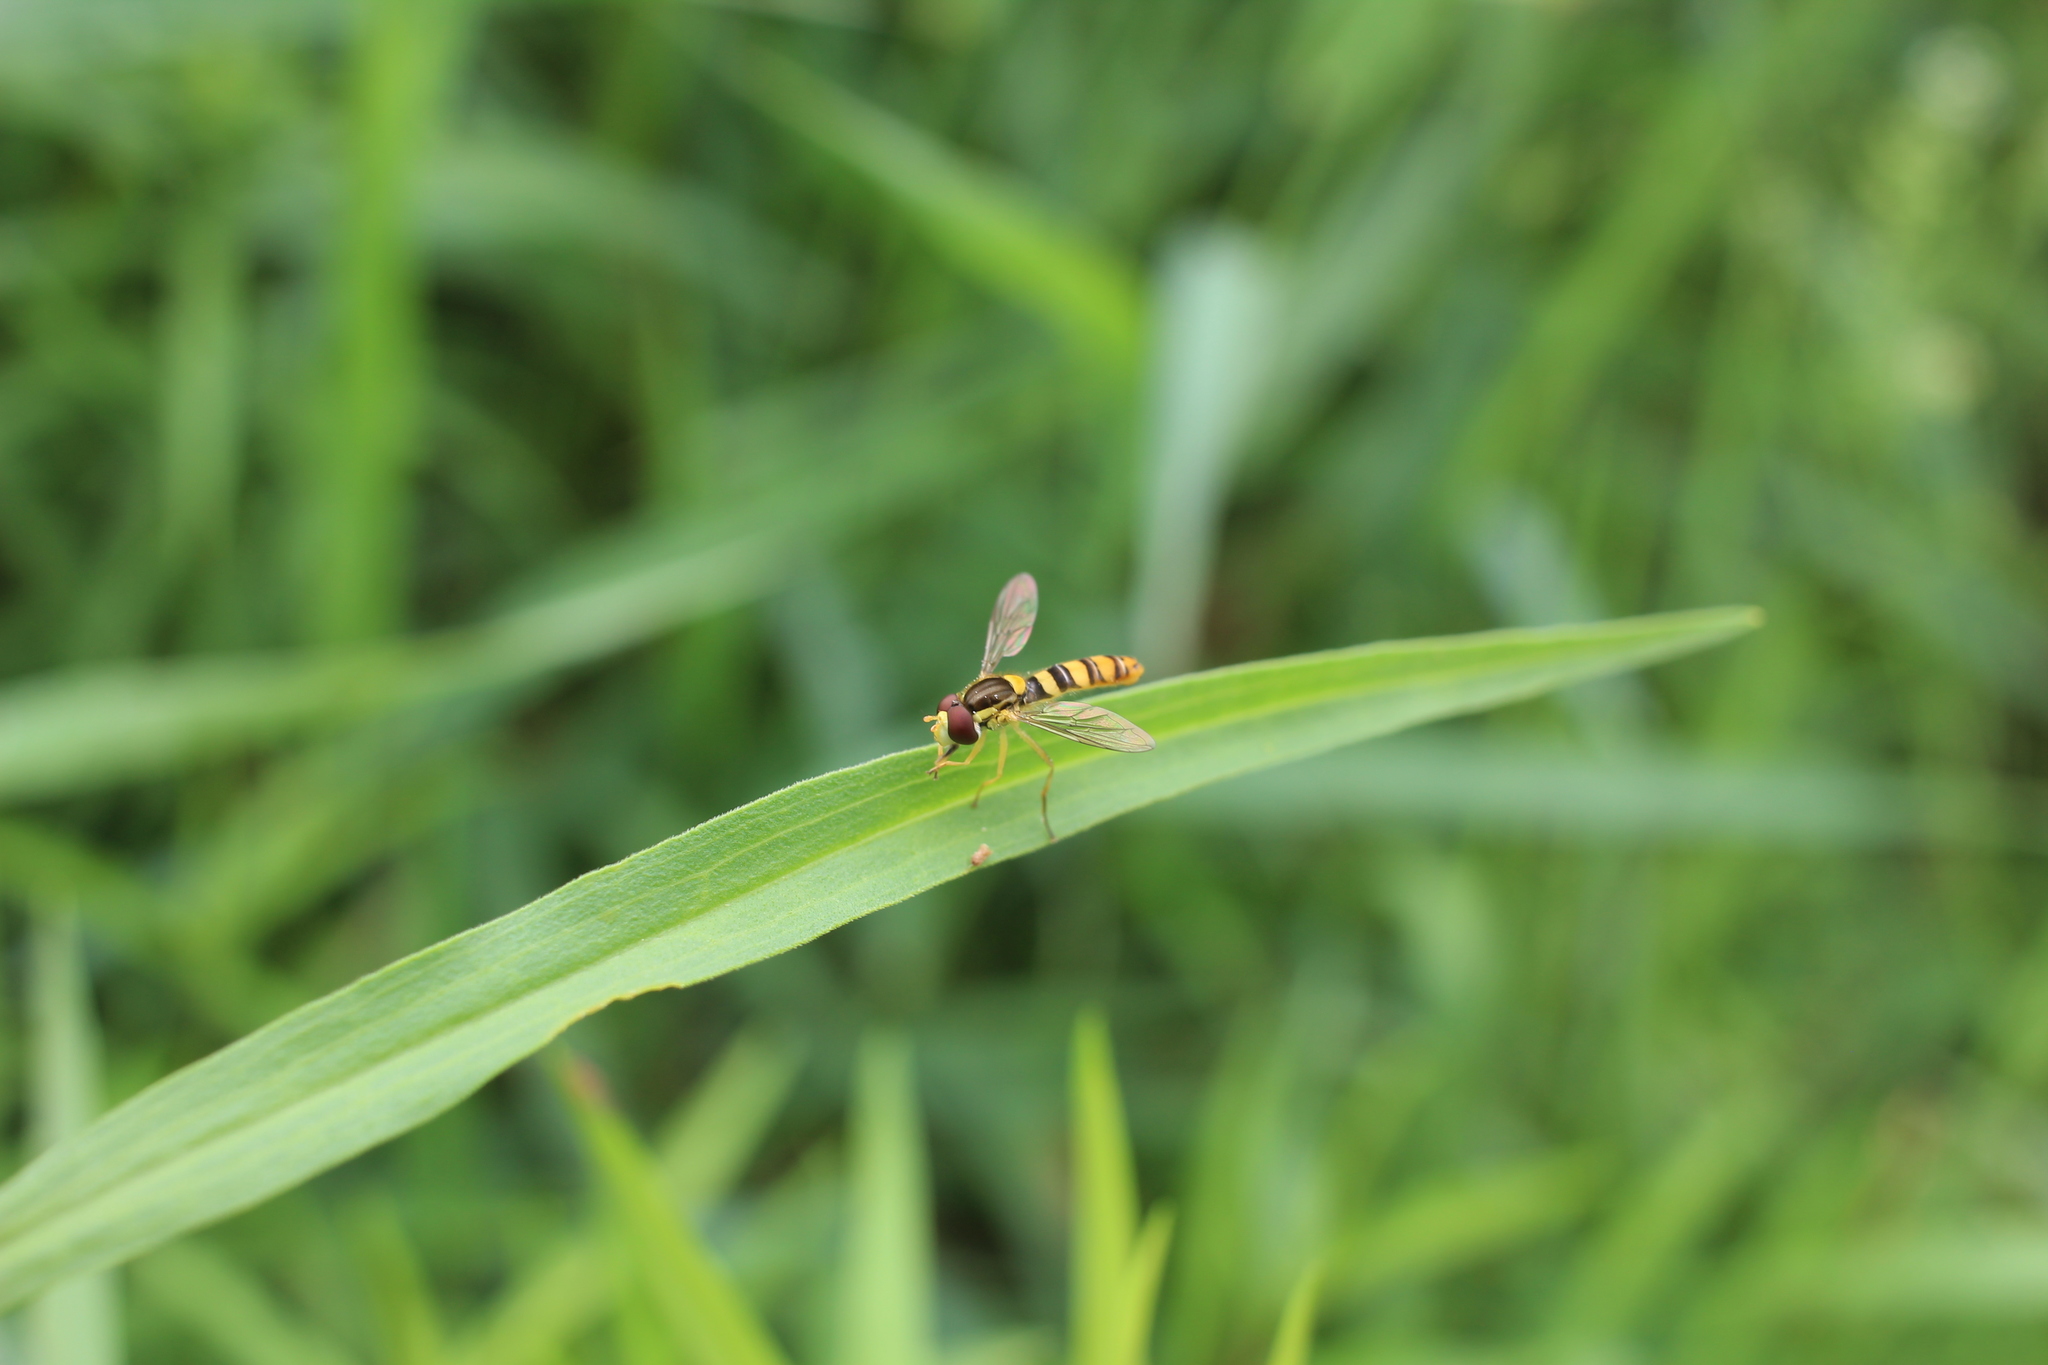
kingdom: Animalia
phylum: Arthropoda
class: Insecta
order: Diptera
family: Syrphidae
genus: Sphaerophoria
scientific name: Sphaerophoria philantha
